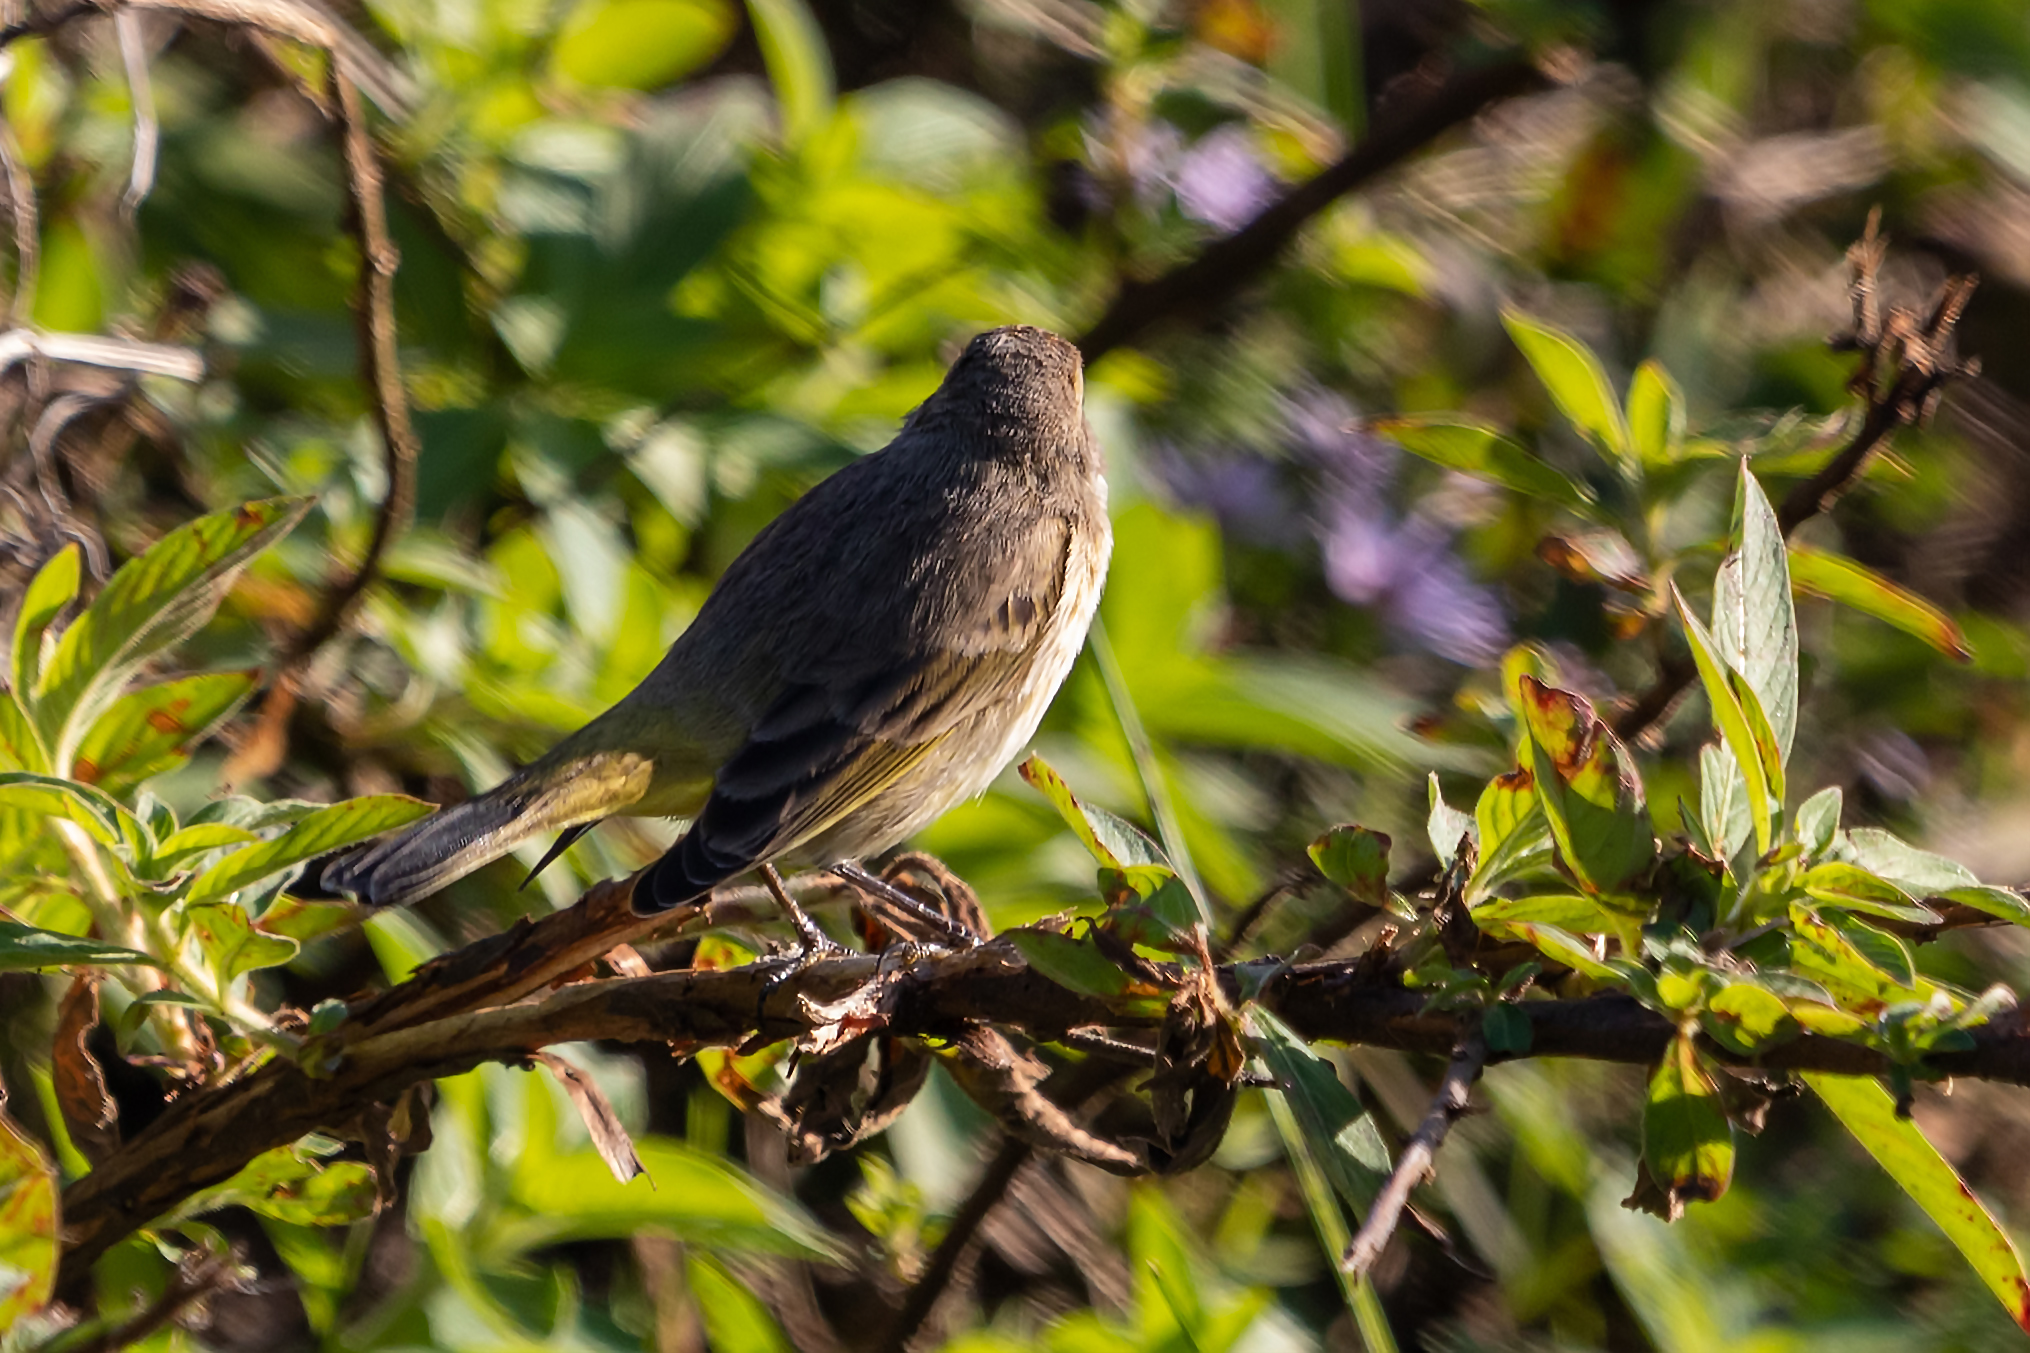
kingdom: Animalia
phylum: Chordata
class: Aves
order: Passeriformes
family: Parulidae
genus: Setophaga
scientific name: Setophaga palmarum
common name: Palm warbler
